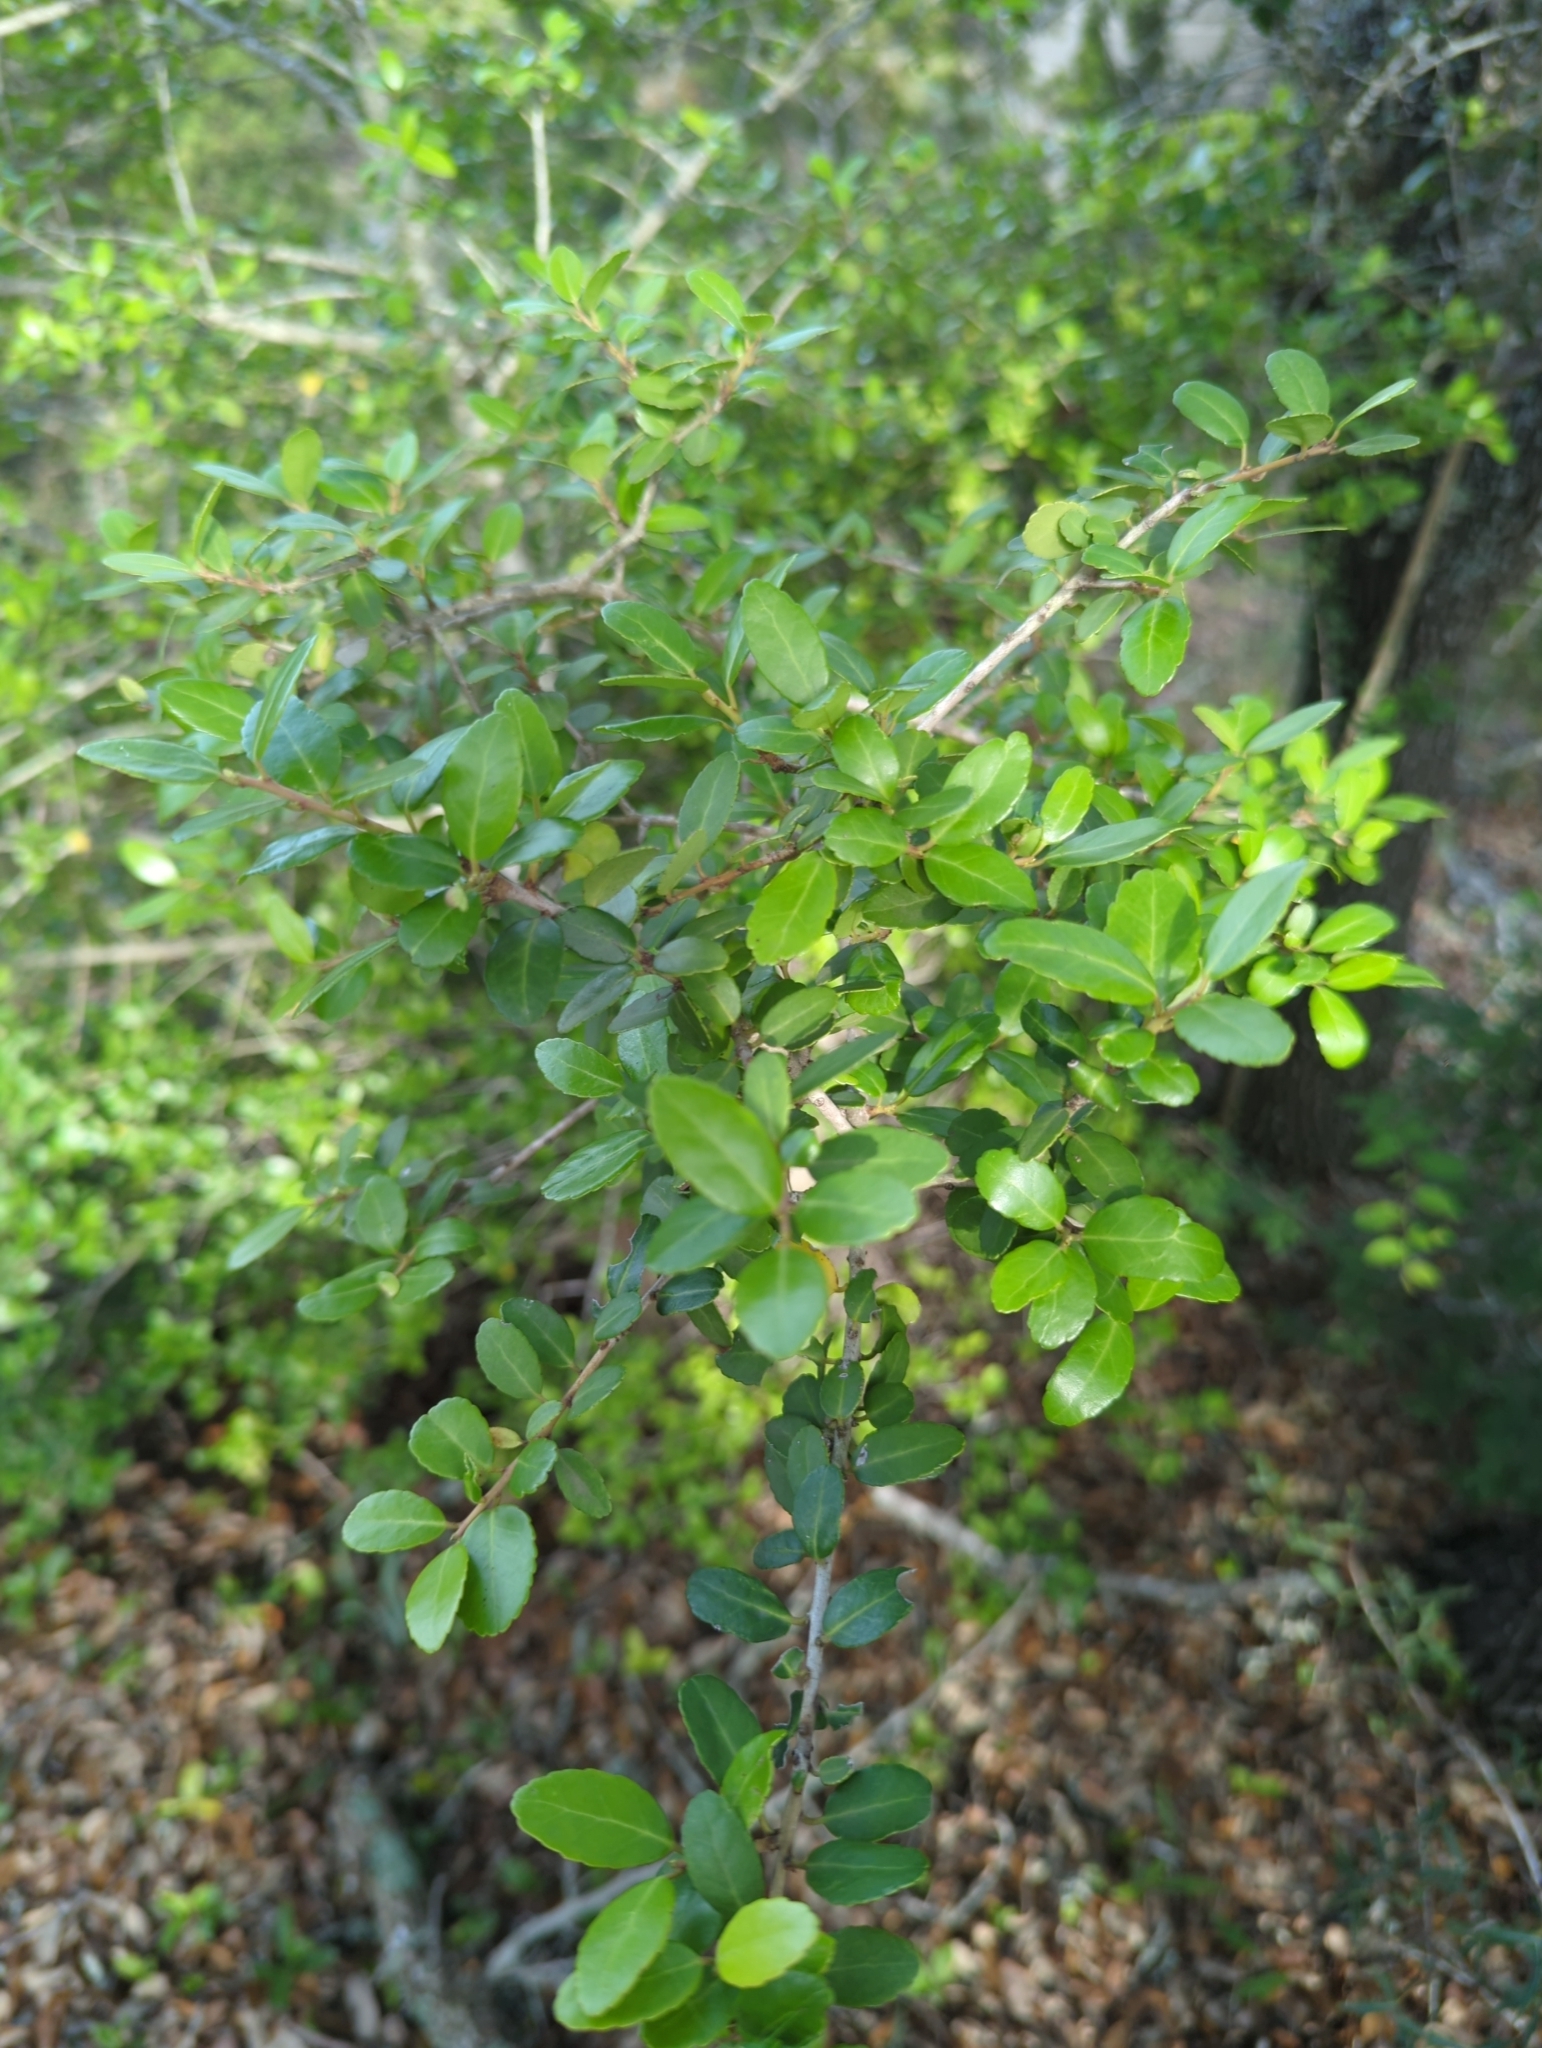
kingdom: Plantae
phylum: Tracheophyta
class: Magnoliopsida
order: Aquifoliales
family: Aquifoliaceae
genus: Ilex
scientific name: Ilex vomitoria
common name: Yaupon holly
